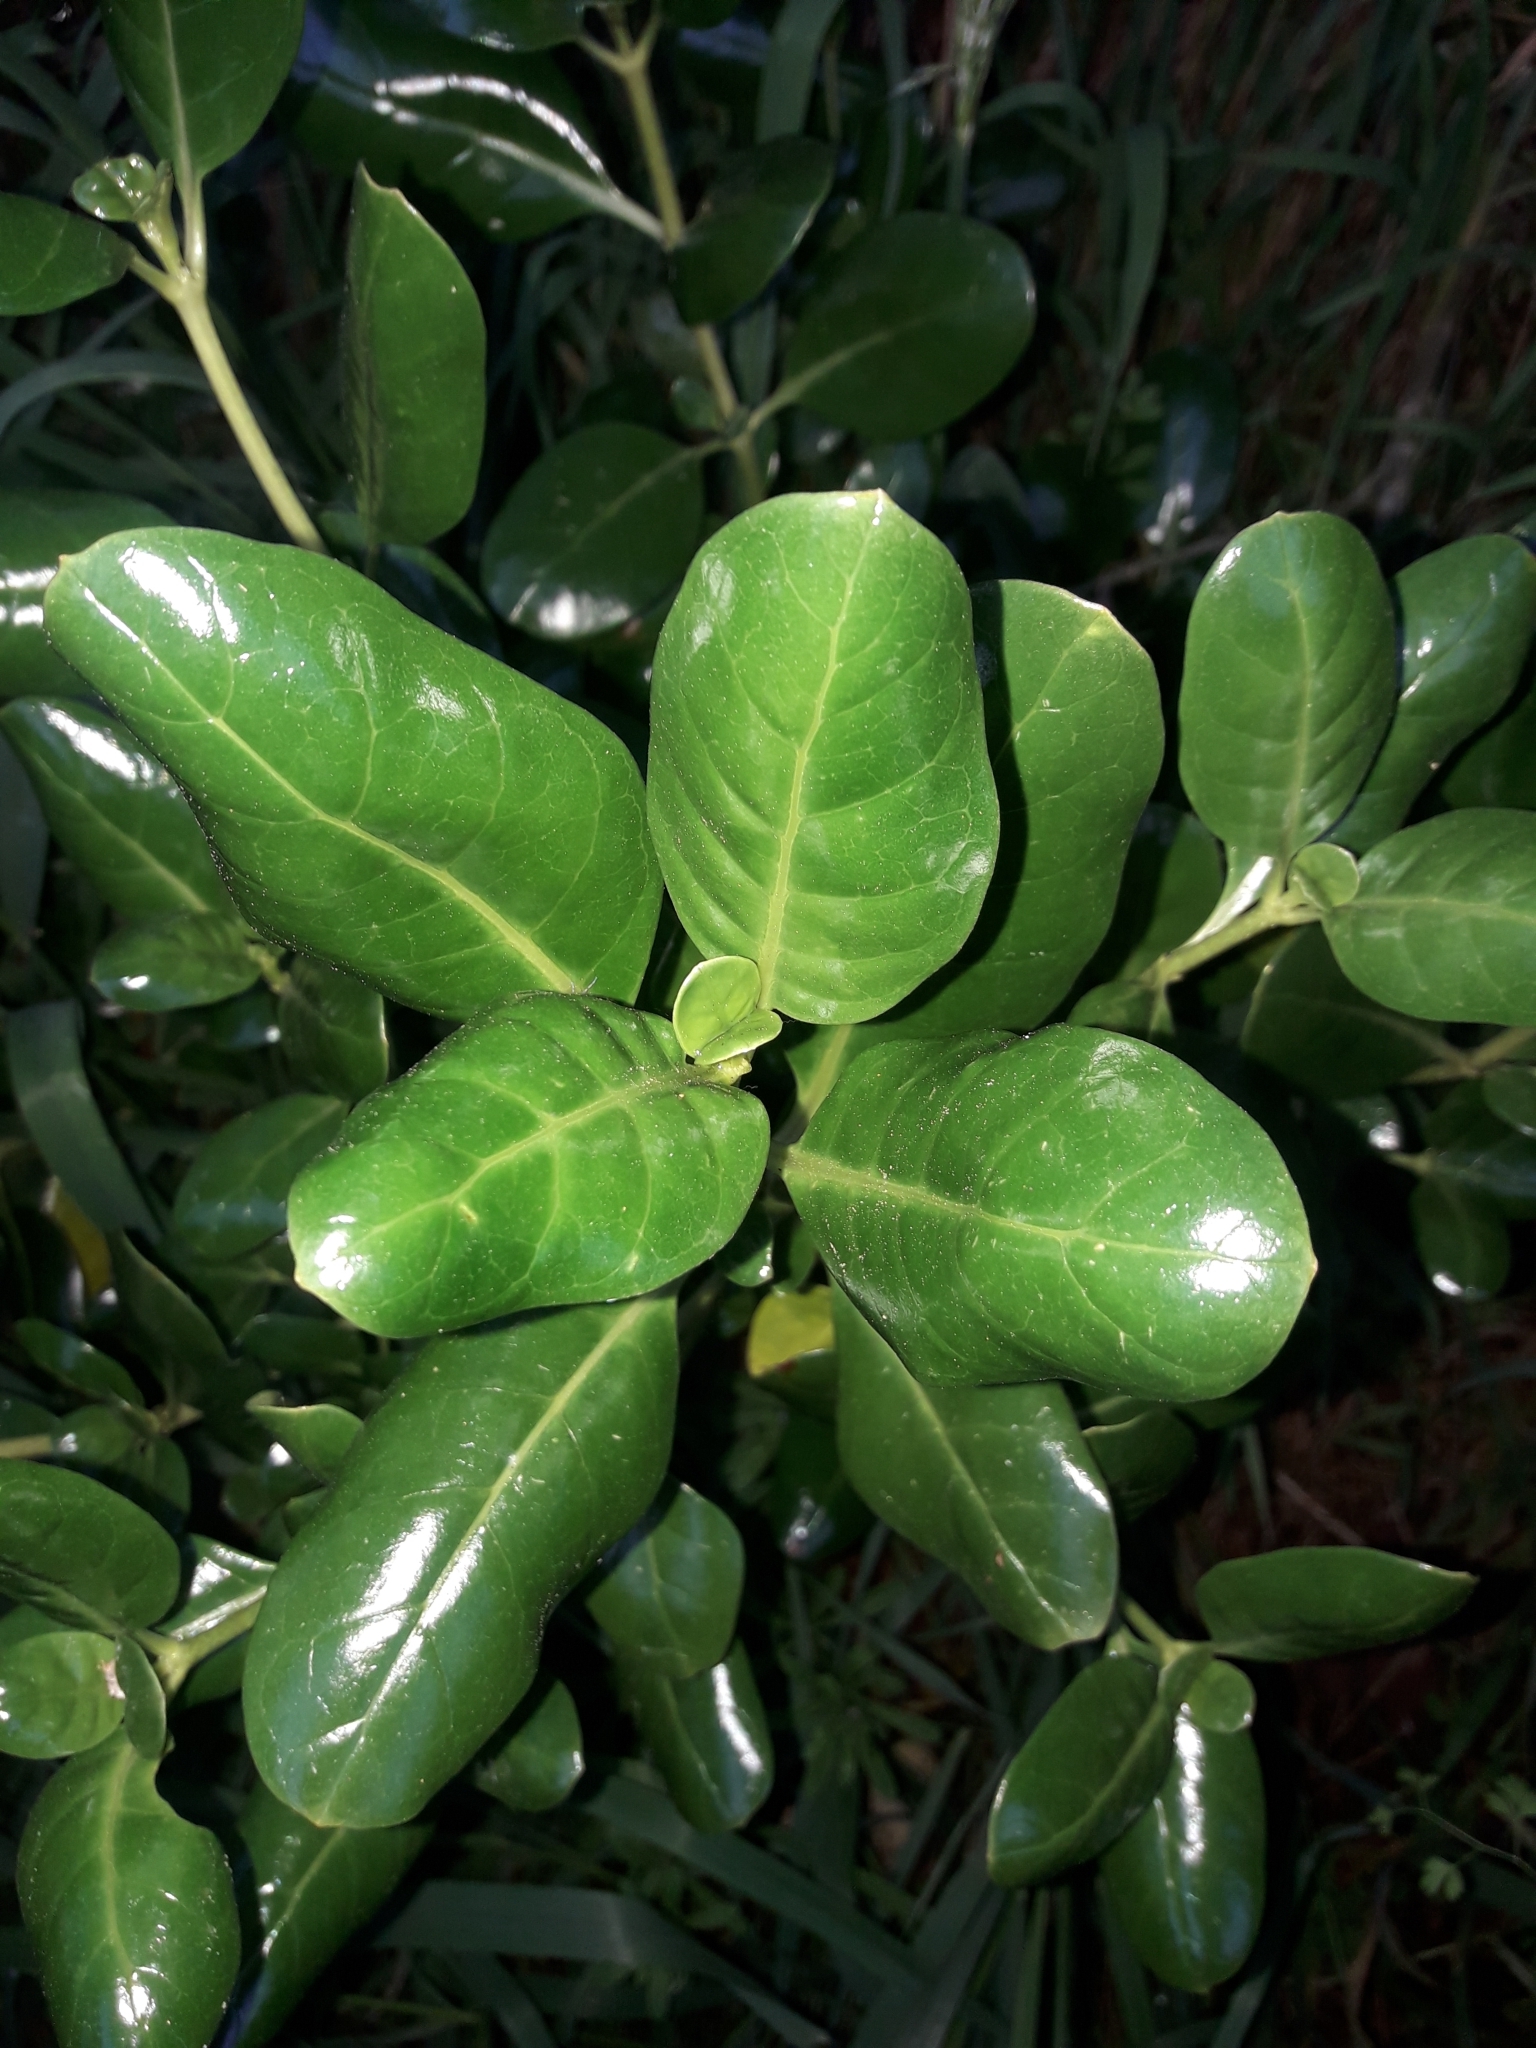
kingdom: Plantae
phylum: Tracheophyta
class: Magnoliopsida
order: Gentianales
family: Rubiaceae
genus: Coprosma
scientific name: Coprosma repens
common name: Tree bedstraw
